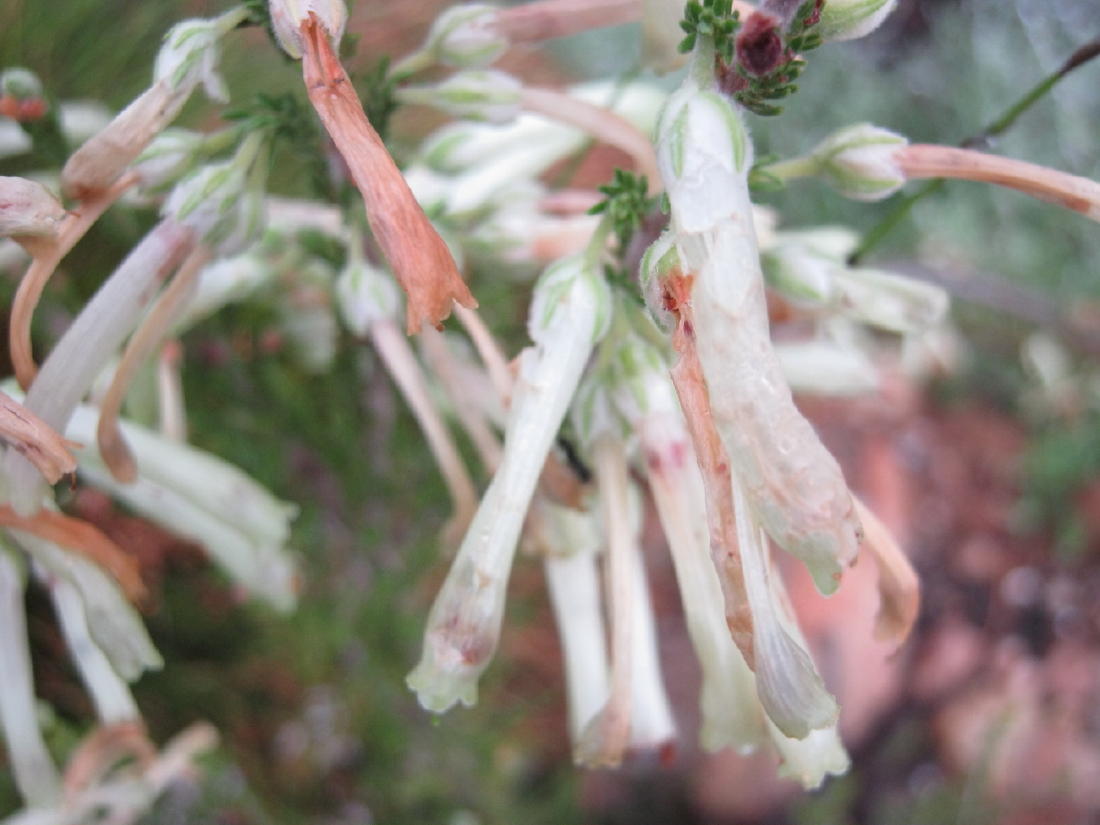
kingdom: Plantae
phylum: Tracheophyta
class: Magnoliopsida
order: Ericales
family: Ericaceae
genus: Erica
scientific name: Erica discolor
